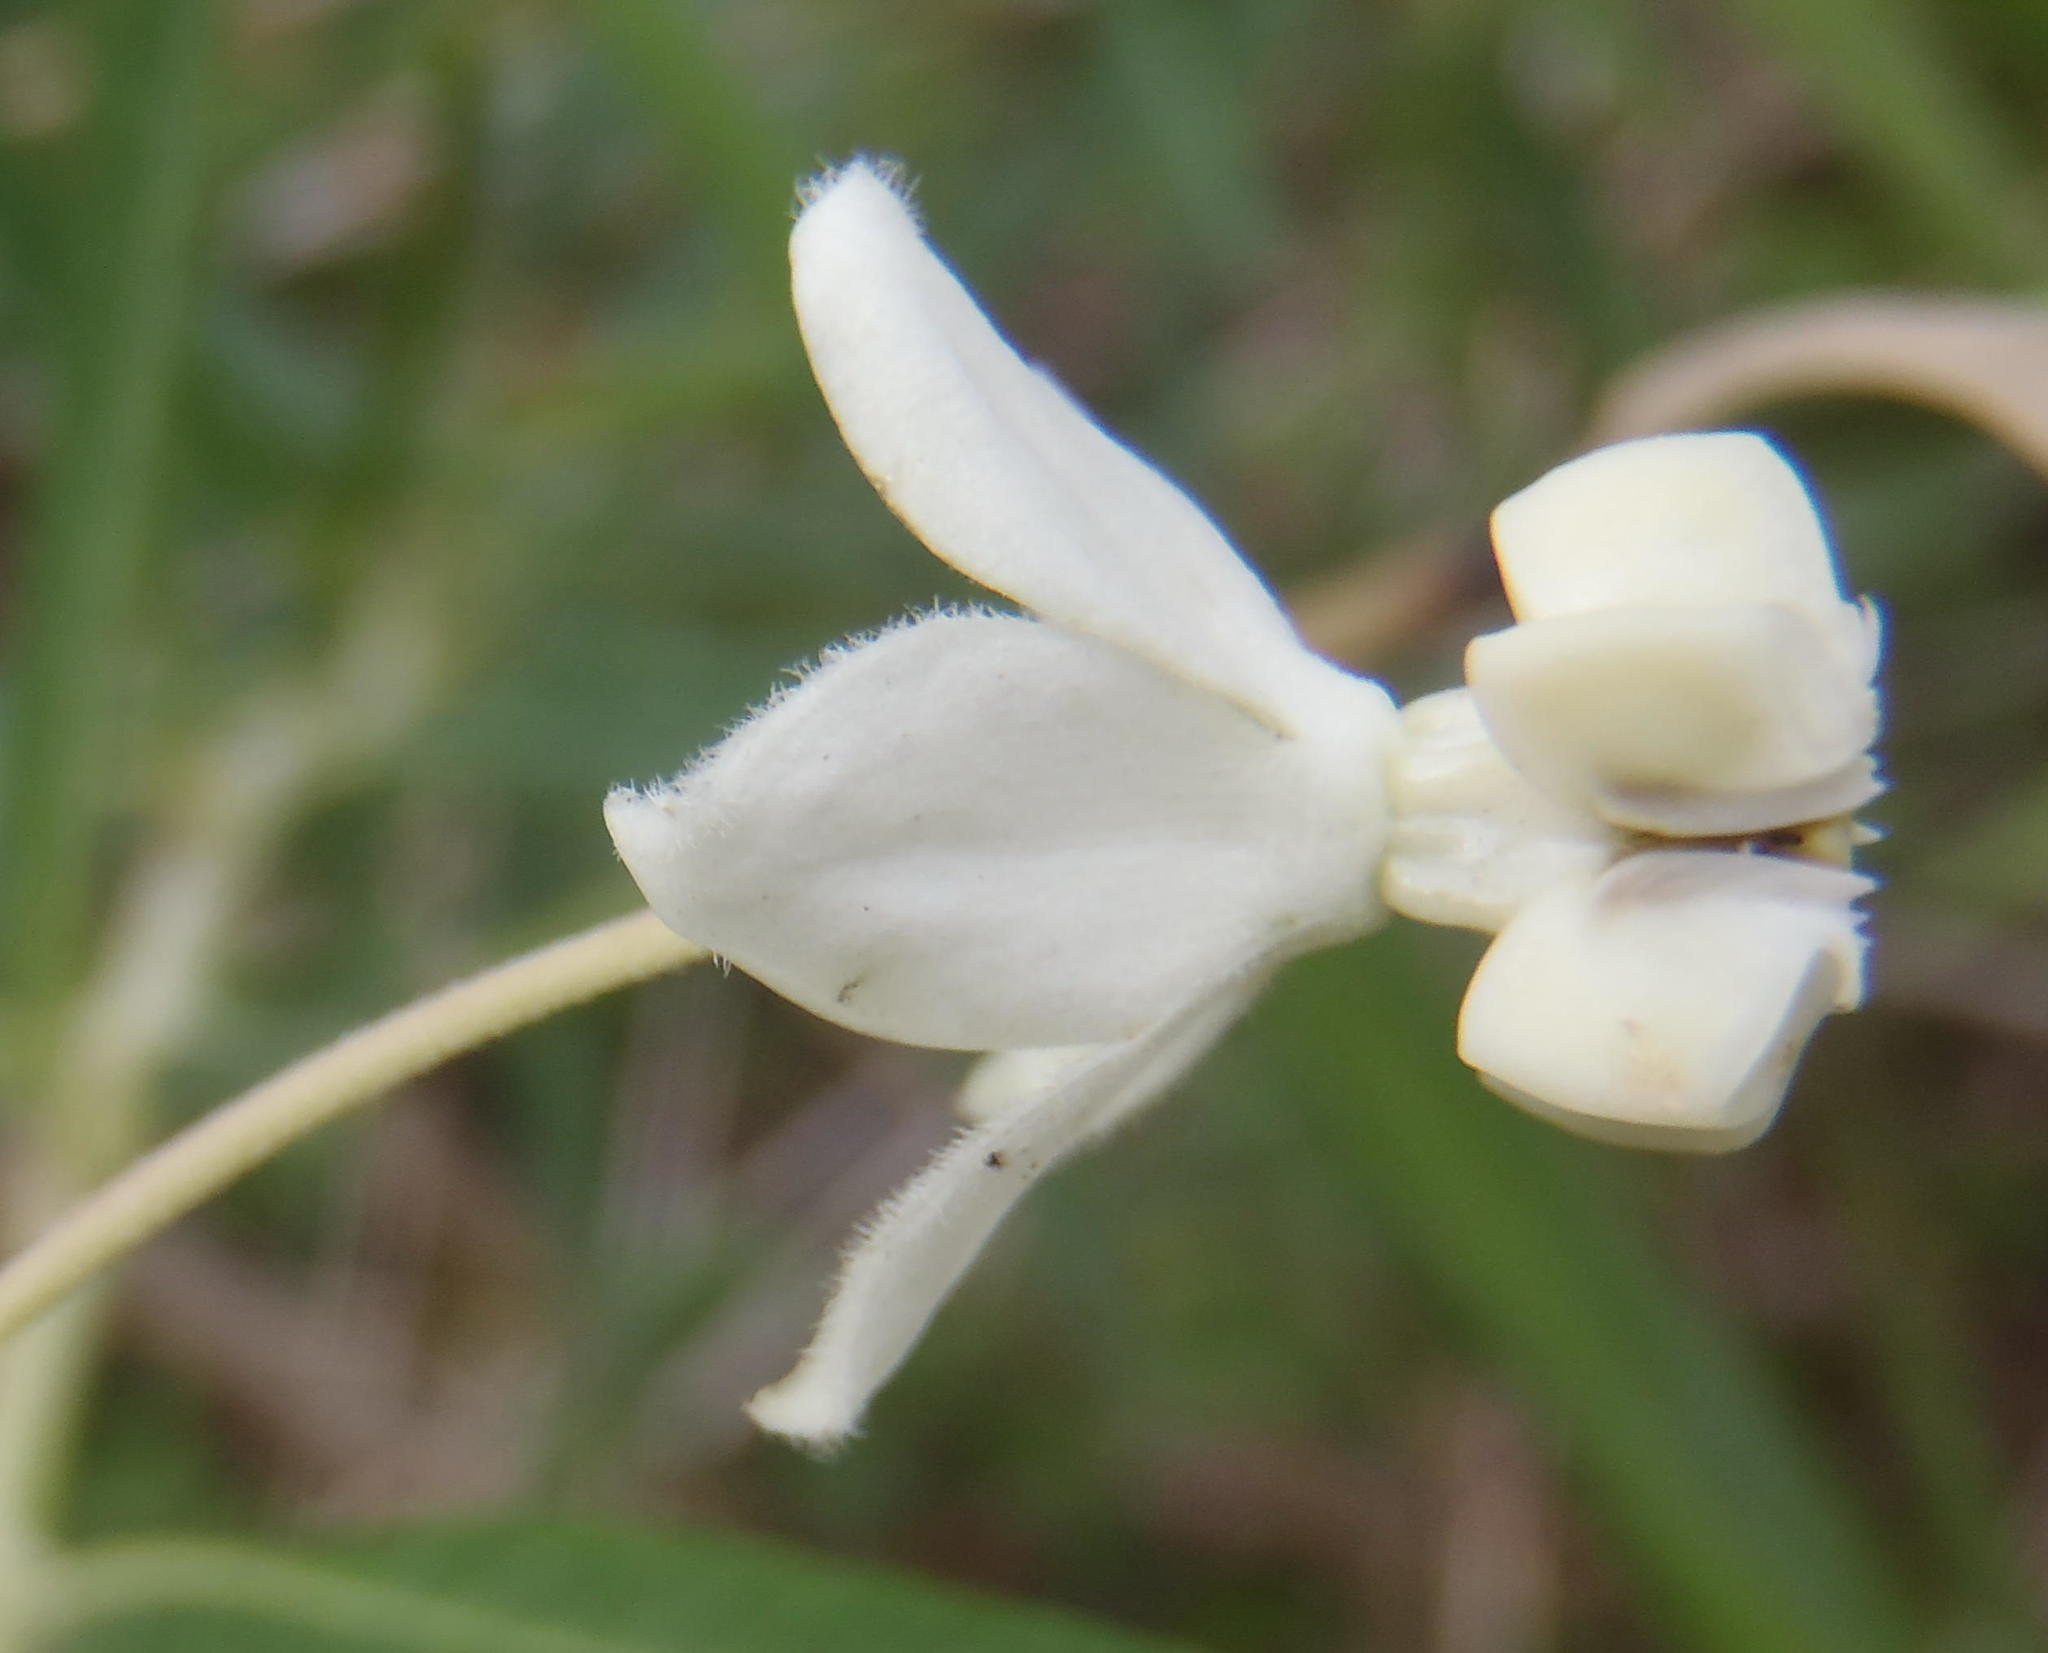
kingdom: Plantae
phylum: Tracheophyta
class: Magnoliopsida
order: Gentianales
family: Apocynaceae
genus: Gomphocarpus
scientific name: Gomphocarpus physocarpus
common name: Balloon cotton bush
